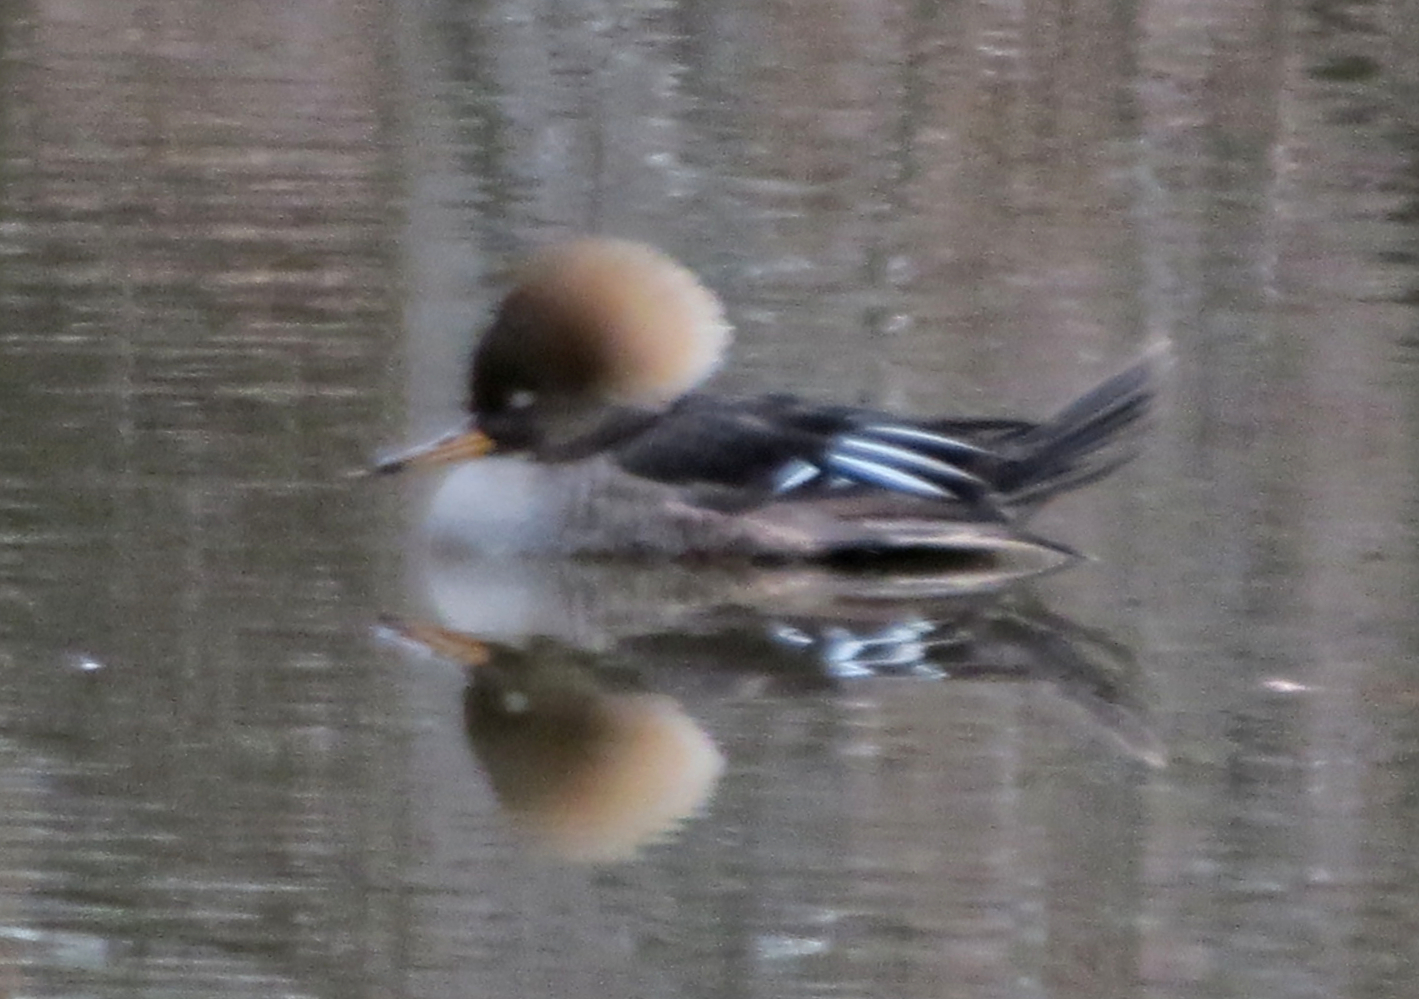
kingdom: Animalia
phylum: Chordata
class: Aves
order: Anseriformes
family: Anatidae
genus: Lophodytes
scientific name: Lophodytes cucullatus
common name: Hooded merganser
